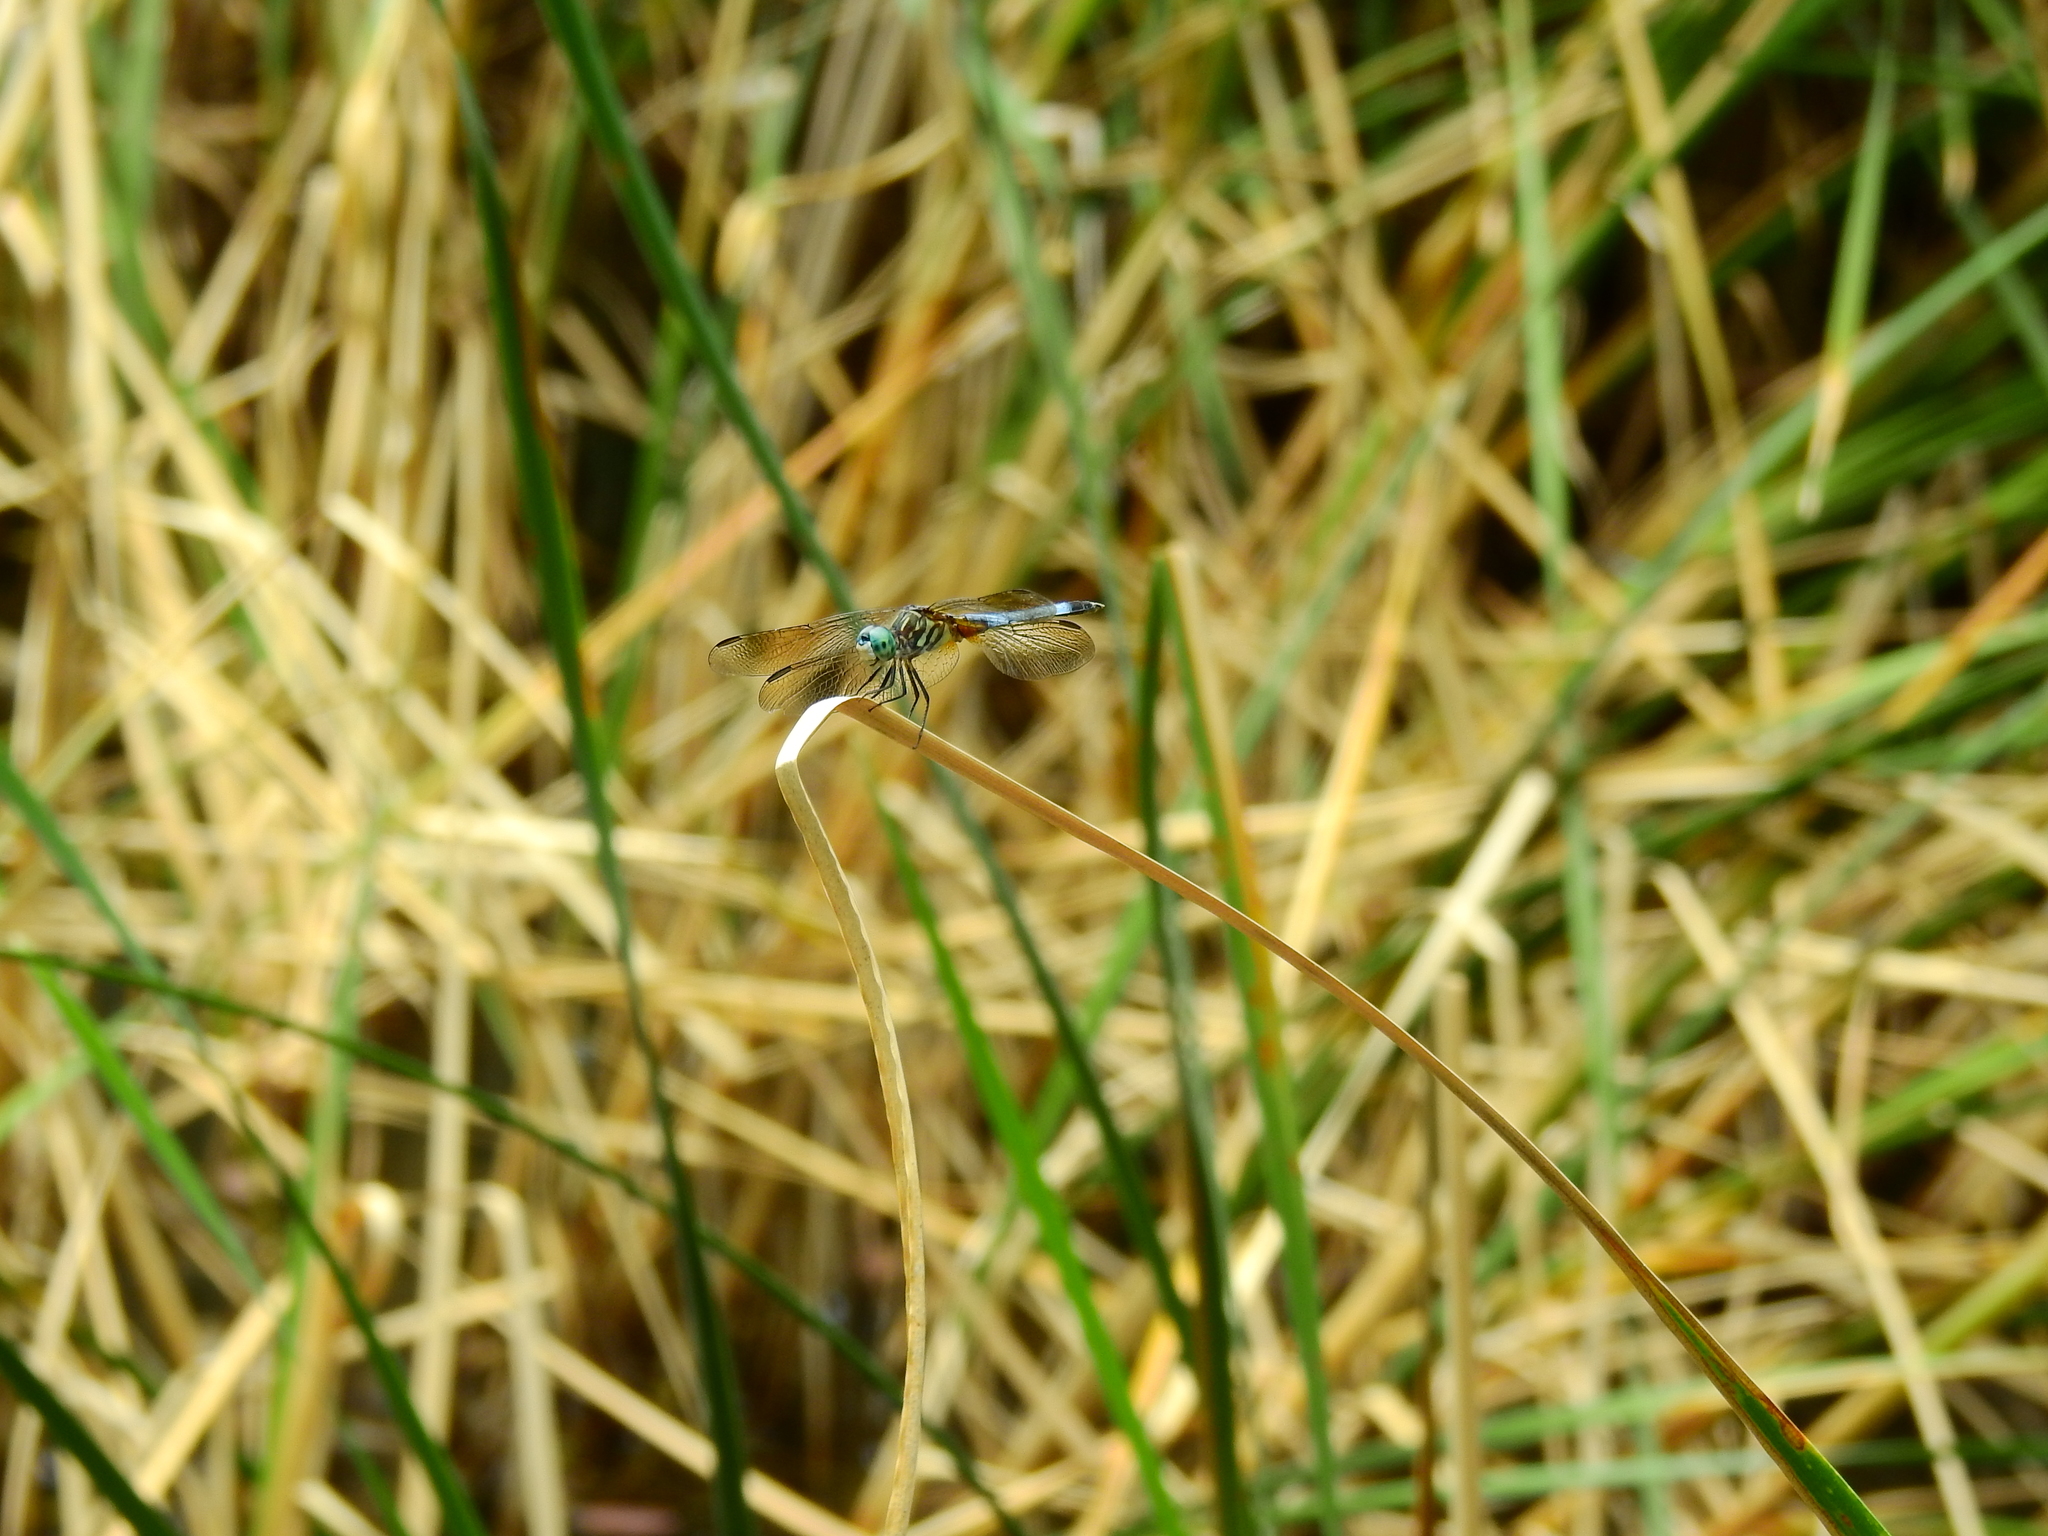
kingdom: Animalia
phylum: Arthropoda
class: Insecta
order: Odonata
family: Libellulidae
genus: Pachydiplax
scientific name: Pachydiplax longipennis
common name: Blue dasher
